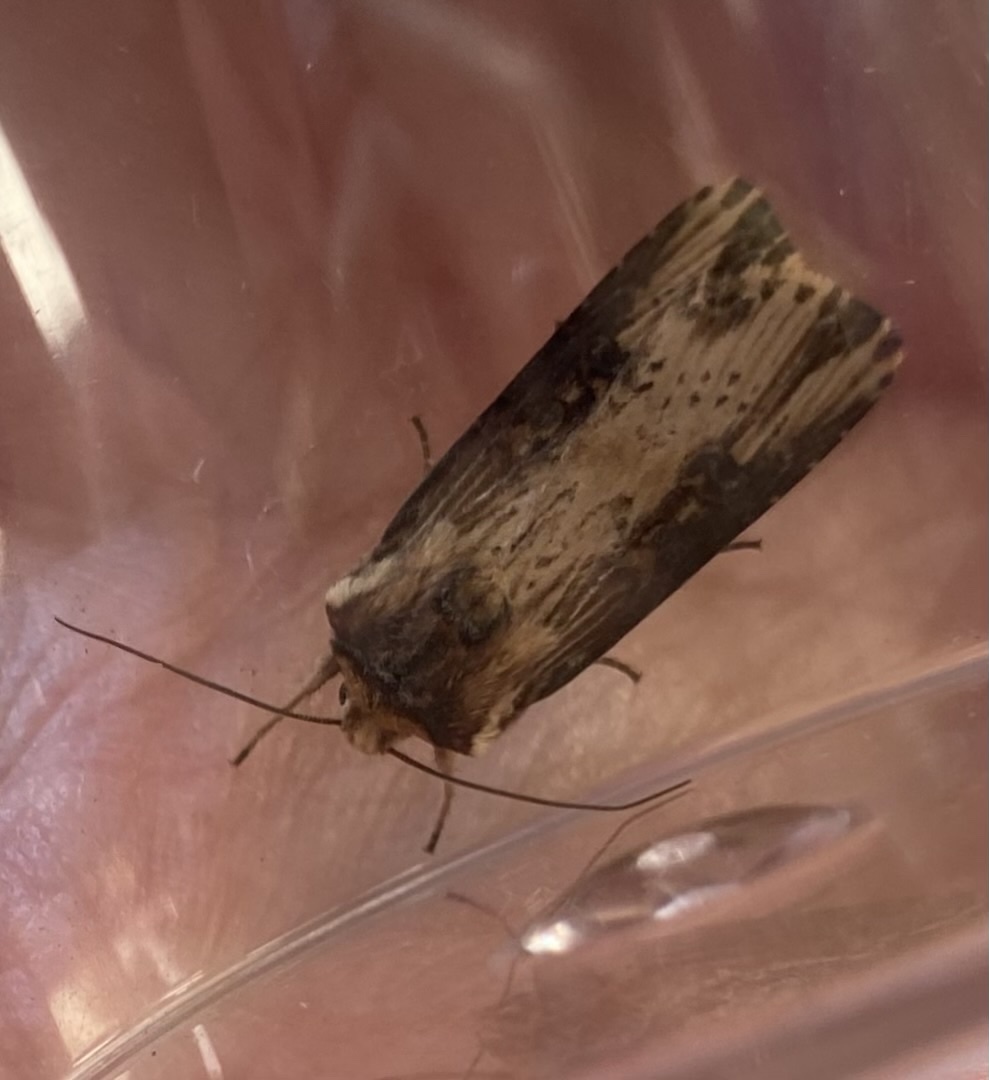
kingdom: Animalia
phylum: Arthropoda
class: Insecta
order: Lepidoptera
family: Noctuidae
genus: Axylia
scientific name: Axylia putris
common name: Flame
